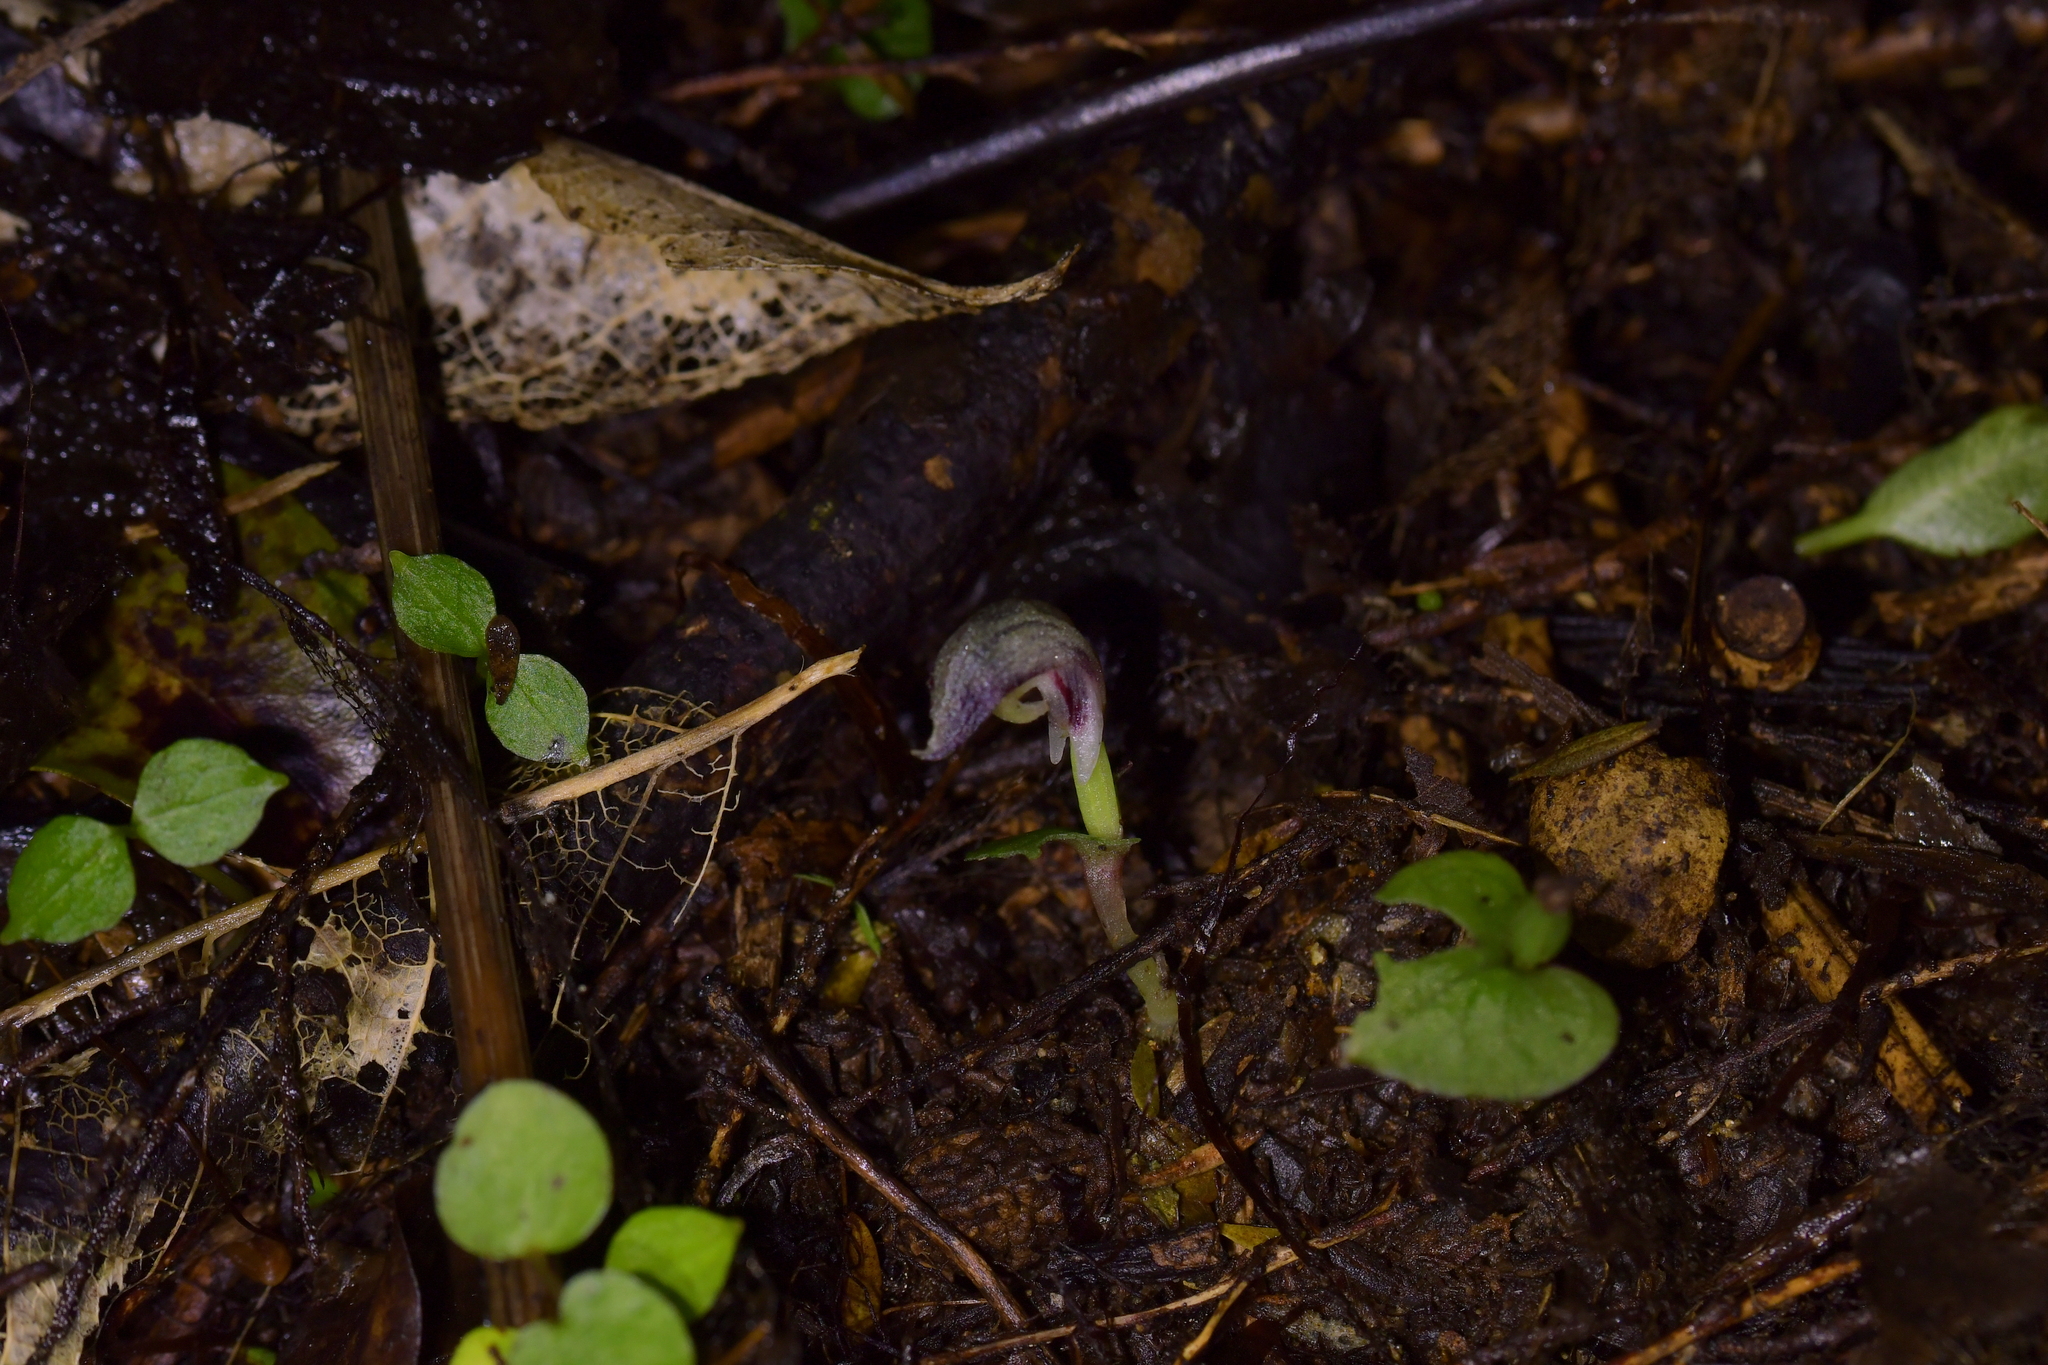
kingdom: Plantae
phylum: Tracheophyta
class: Liliopsida
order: Asparagales
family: Orchidaceae
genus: Corybas
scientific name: Corybas cheesemanii
